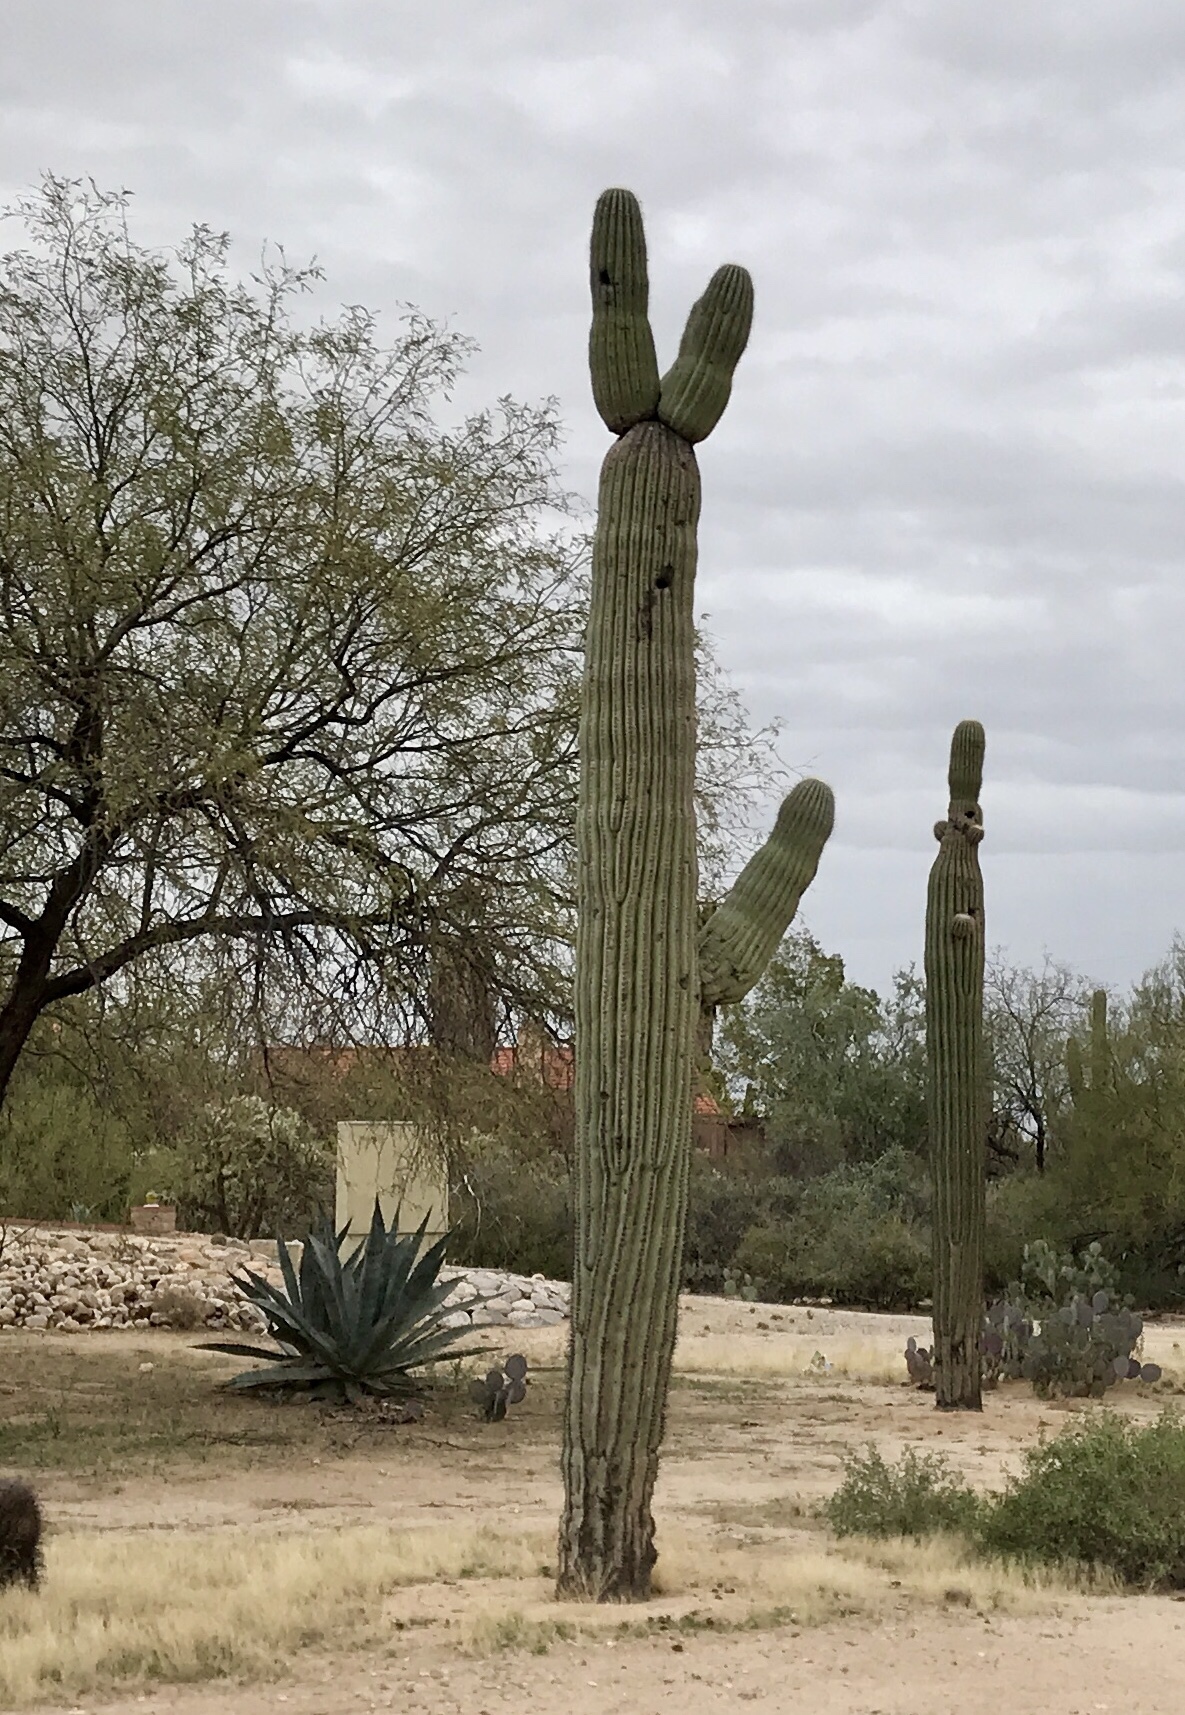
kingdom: Plantae
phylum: Tracheophyta
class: Magnoliopsida
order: Caryophyllales
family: Cactaceae
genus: Carnegiea
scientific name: Carnegiea gigantea
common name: Saguaro
